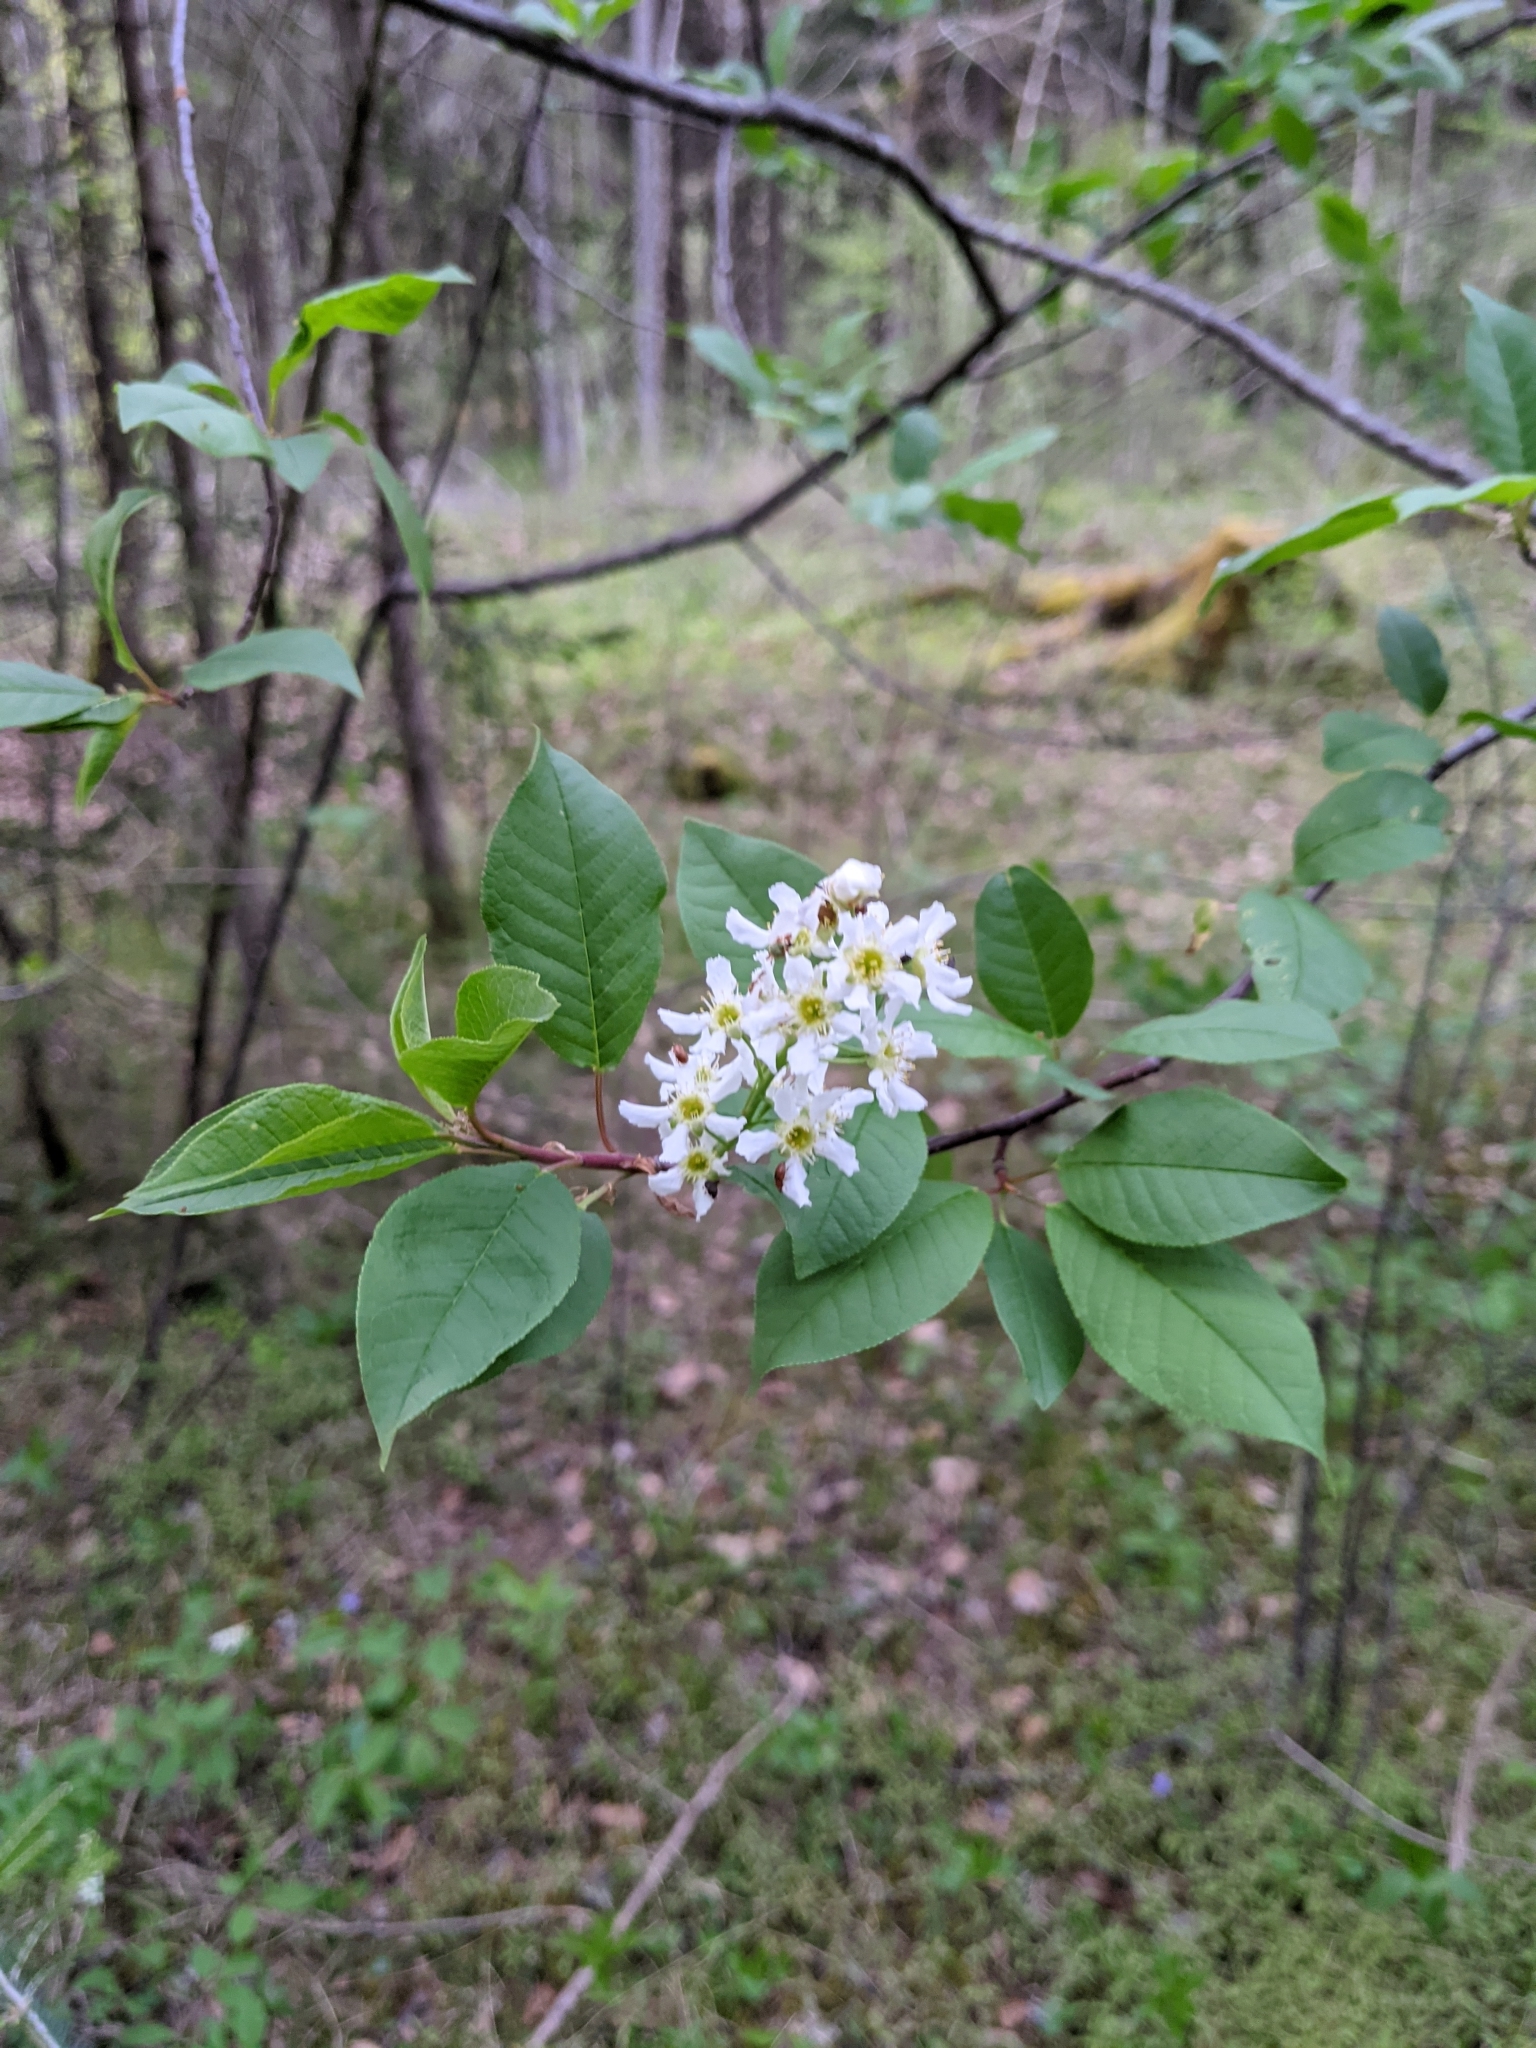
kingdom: Plantae
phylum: Tracheophyta
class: Magnoliopsida
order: Rosales
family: Rosaceae
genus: Prunus
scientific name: Prunus padus
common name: Bird cherry
